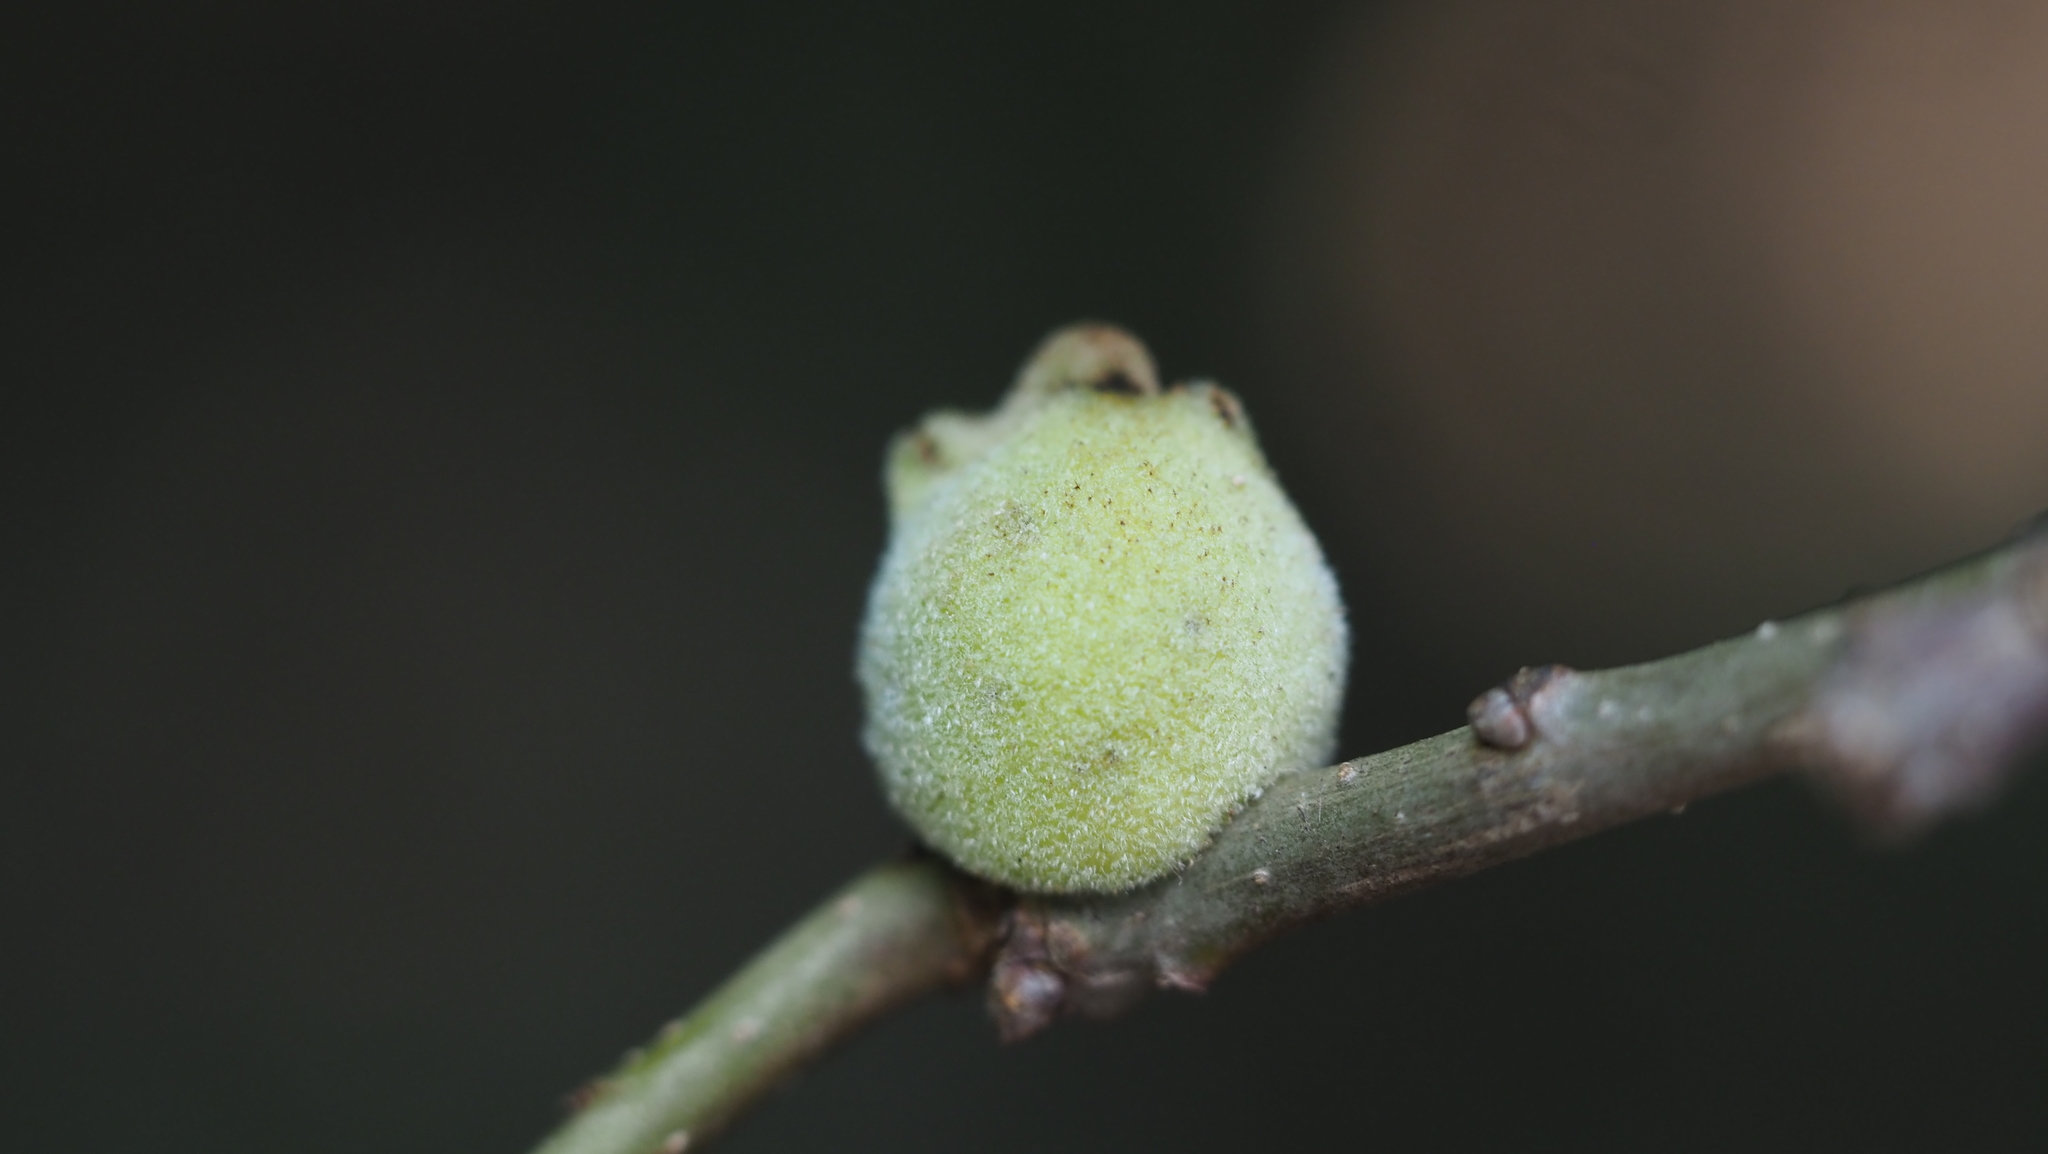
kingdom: Animalia
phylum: Arthropoda
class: Insecta
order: Hymenoptera
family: Cynipidae
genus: Disholcaspis
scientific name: Disholcaspis
